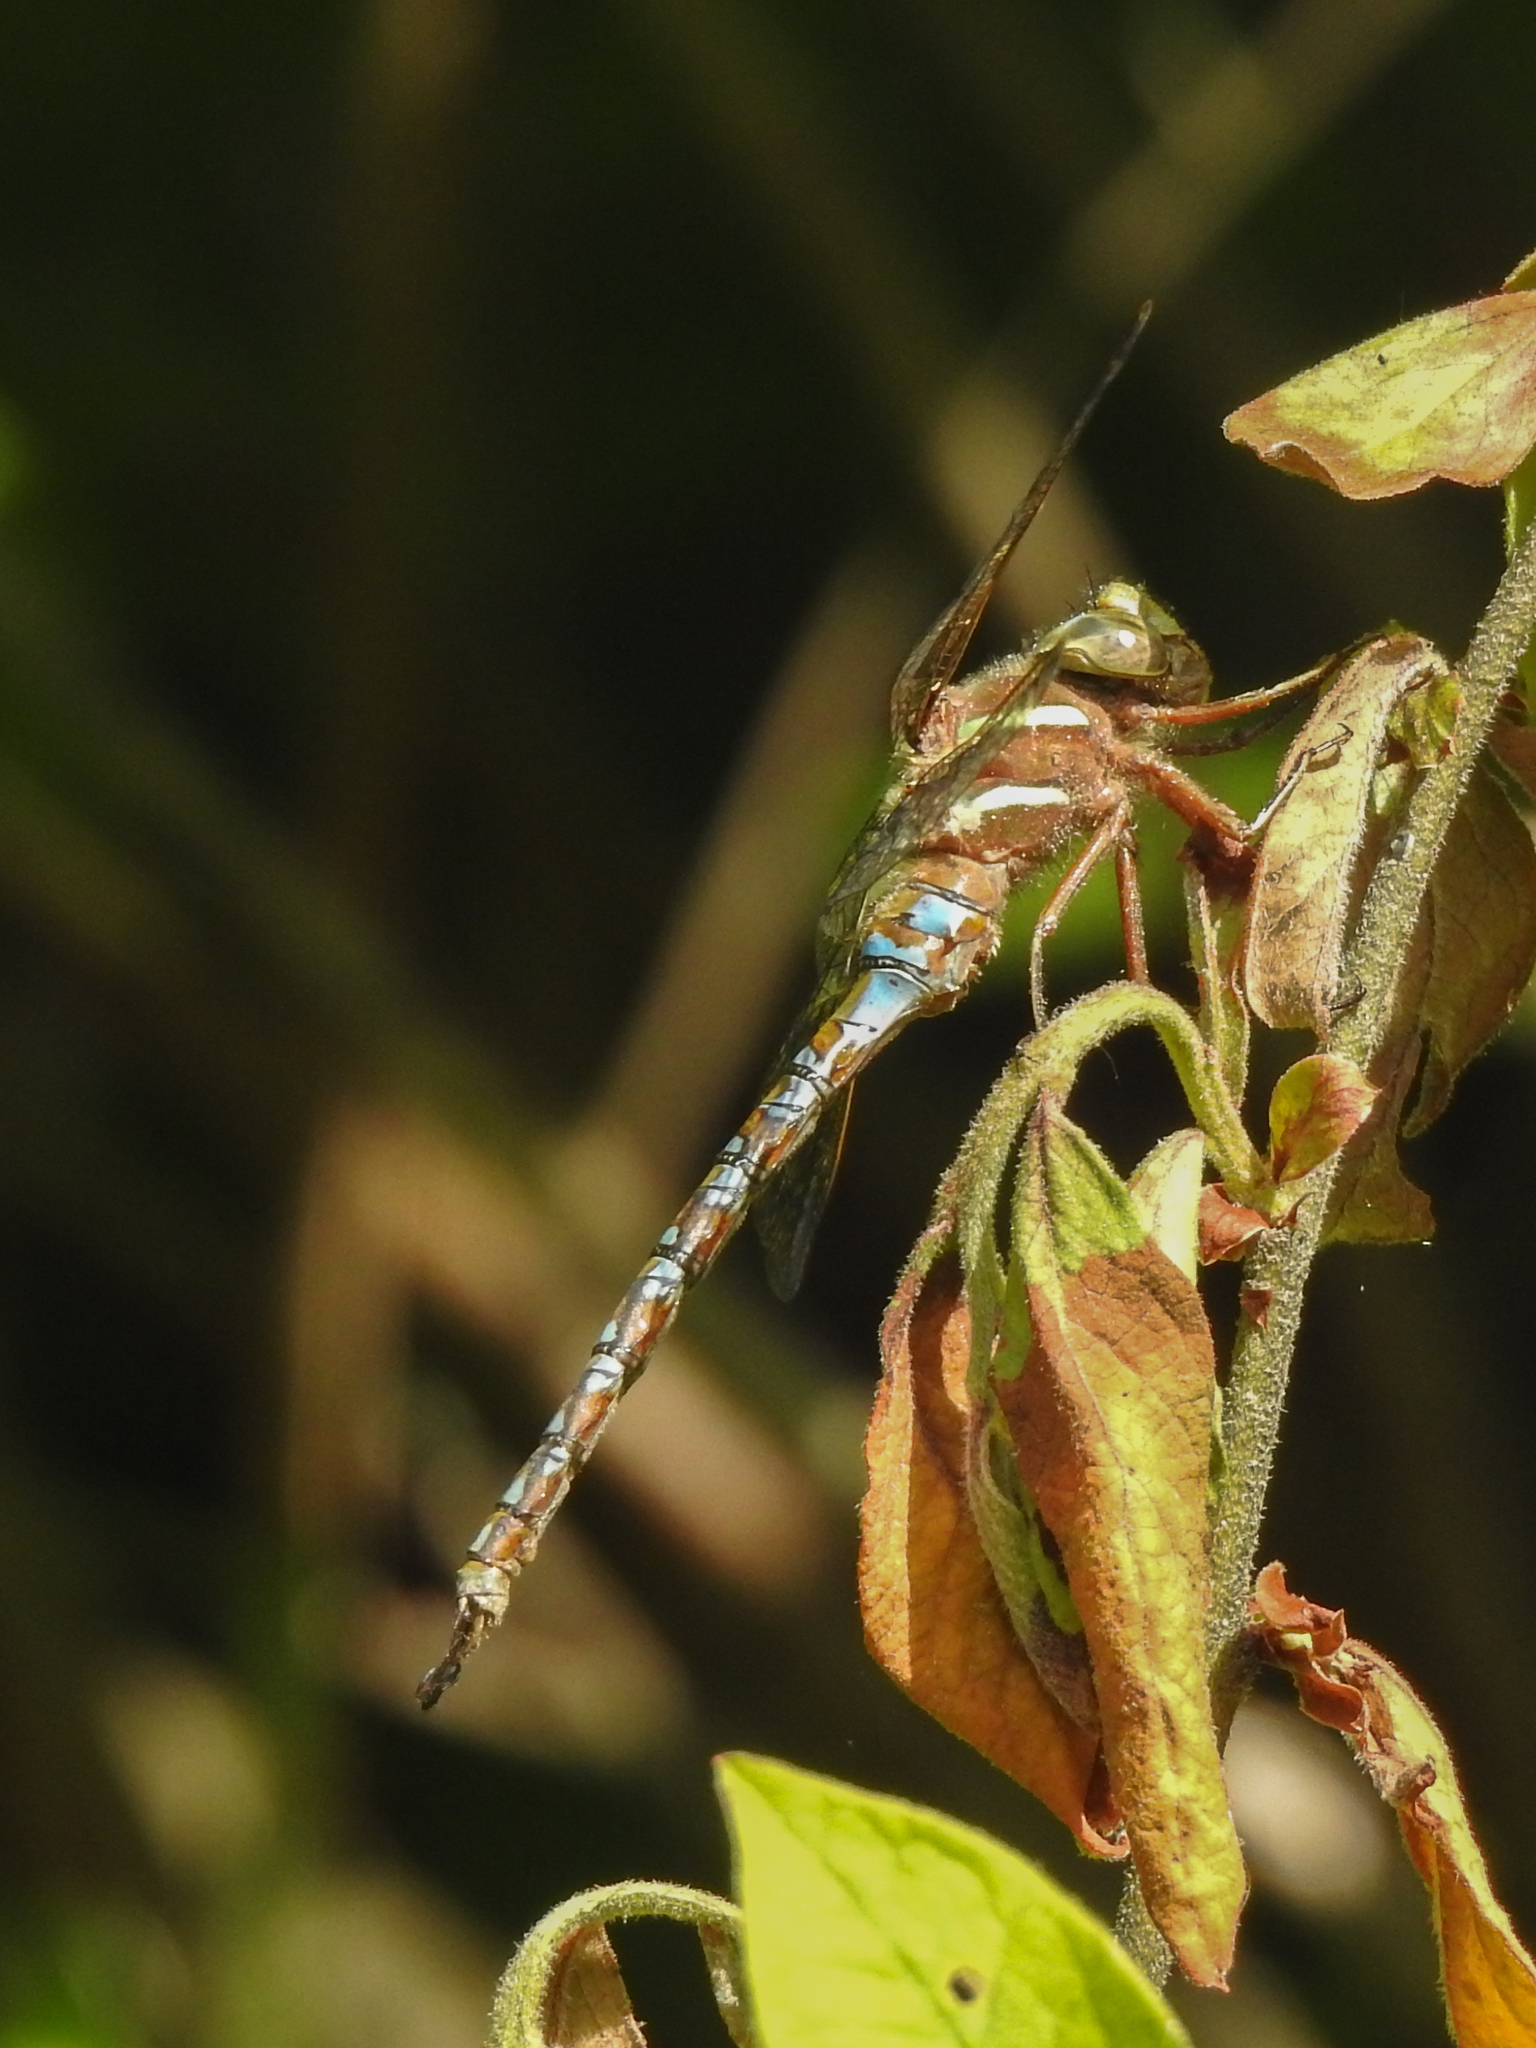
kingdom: Animalia
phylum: Arthropoda
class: Insecta
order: Odonata
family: Aeshnidae
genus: Basiaeschna
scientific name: Basiaeschna janata
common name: Springtime darner
